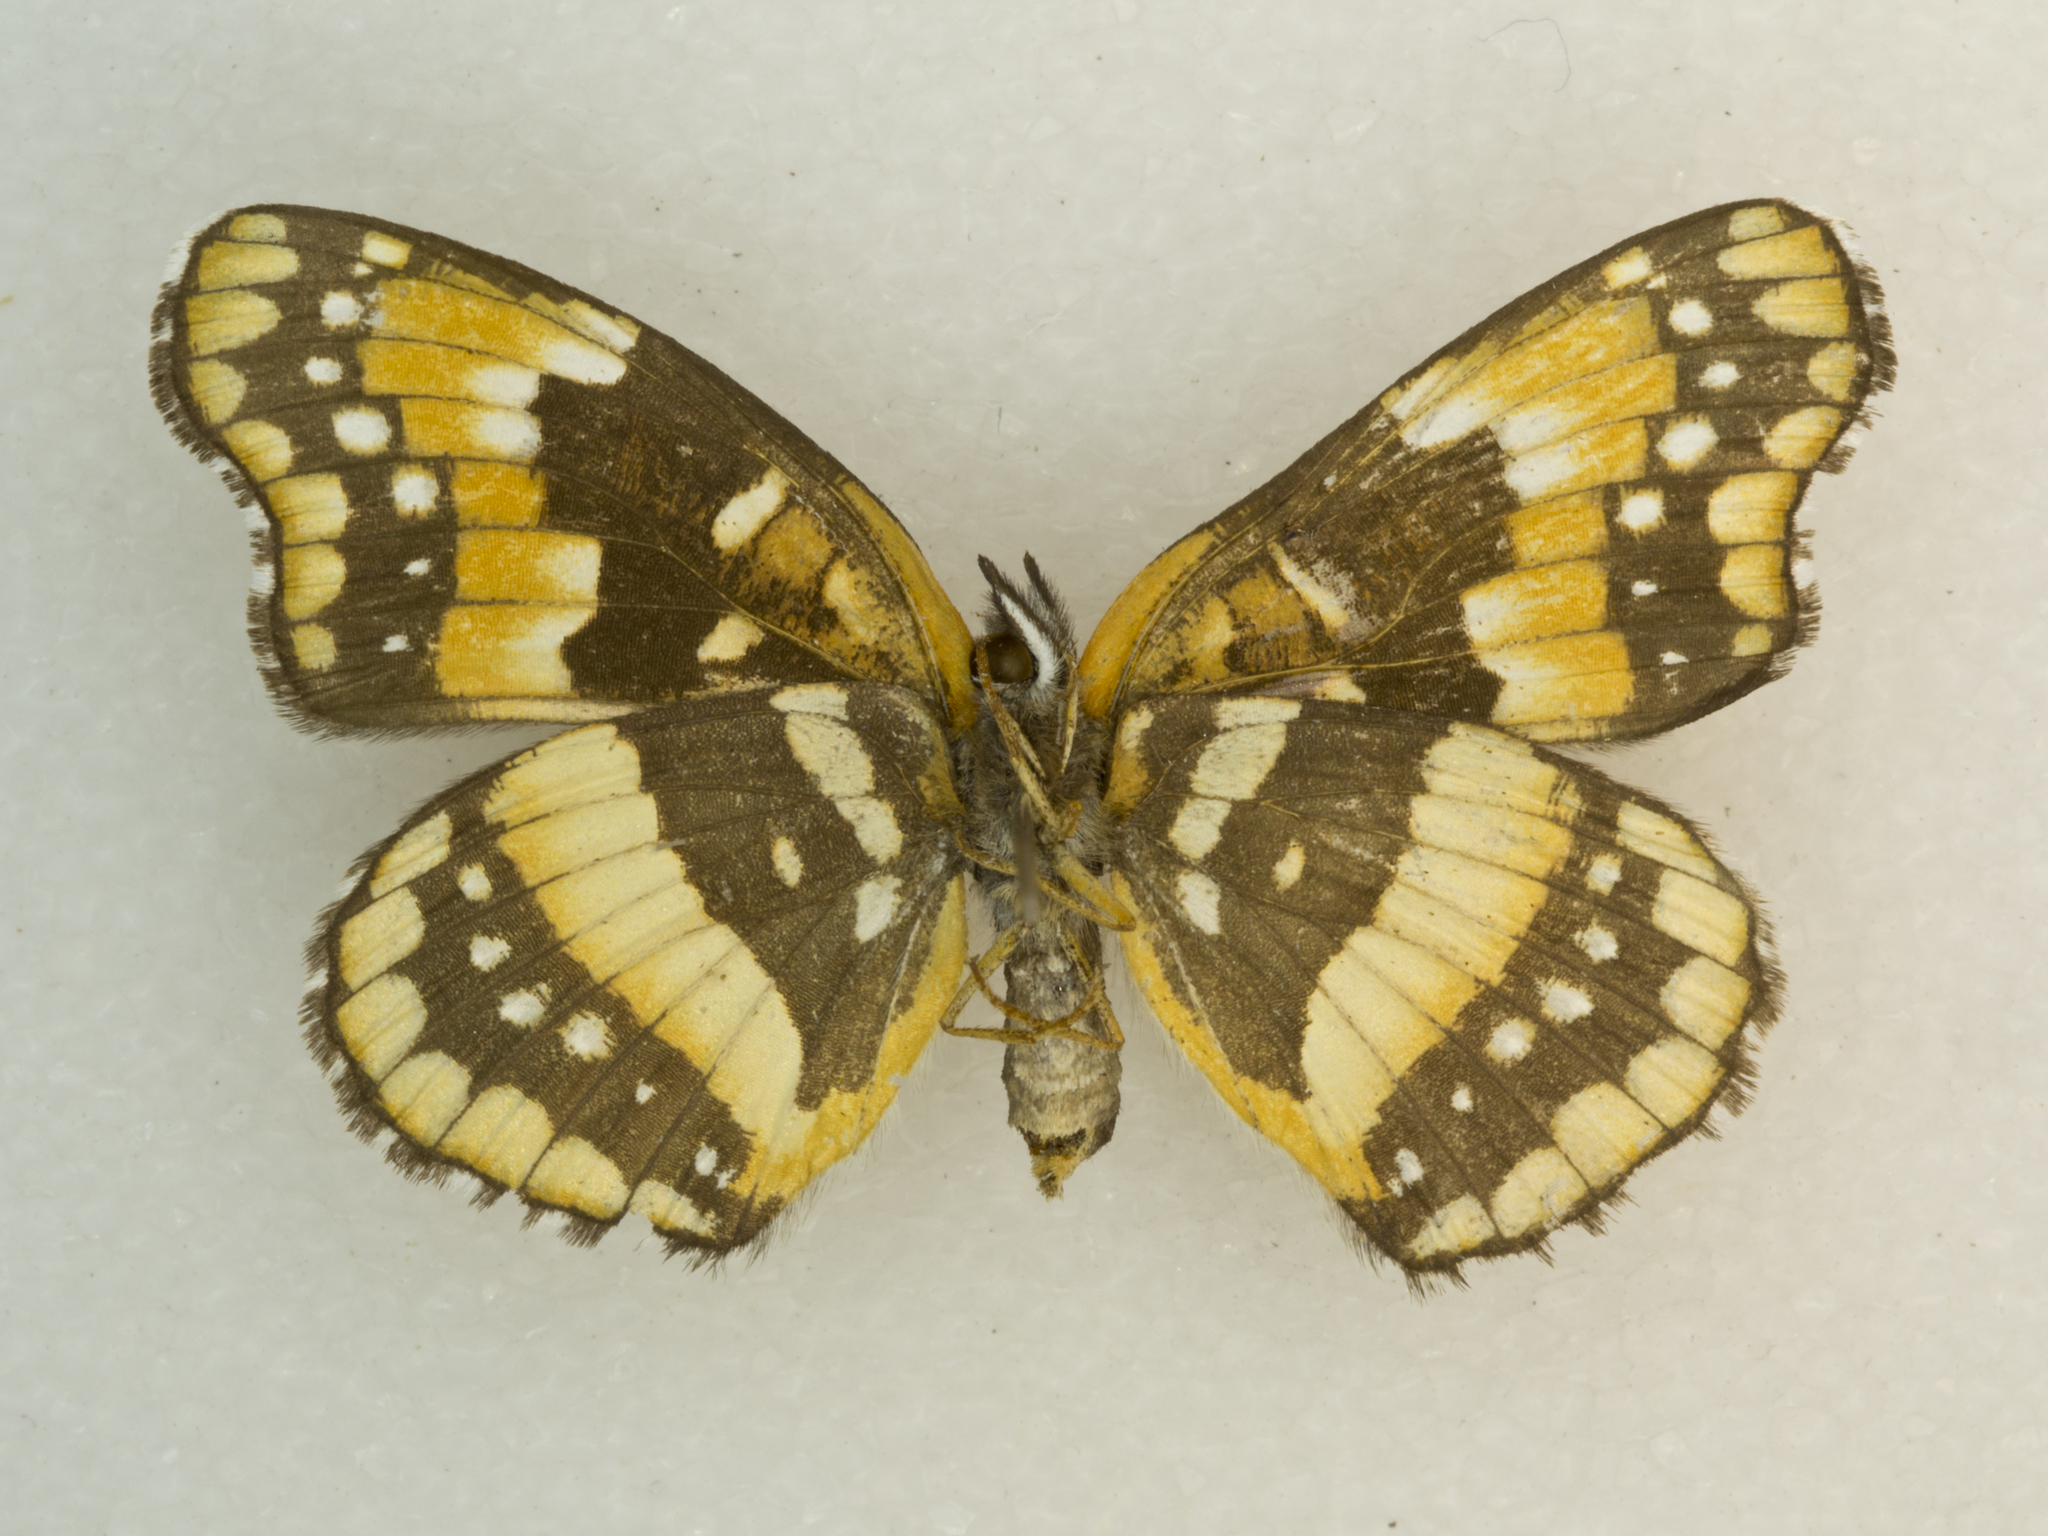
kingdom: Animalia
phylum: Arthropoda
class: Insecta
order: Lepidoptera
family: Nymphalidae
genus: Chlosyne
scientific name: Chlosyne californica
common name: California patch
